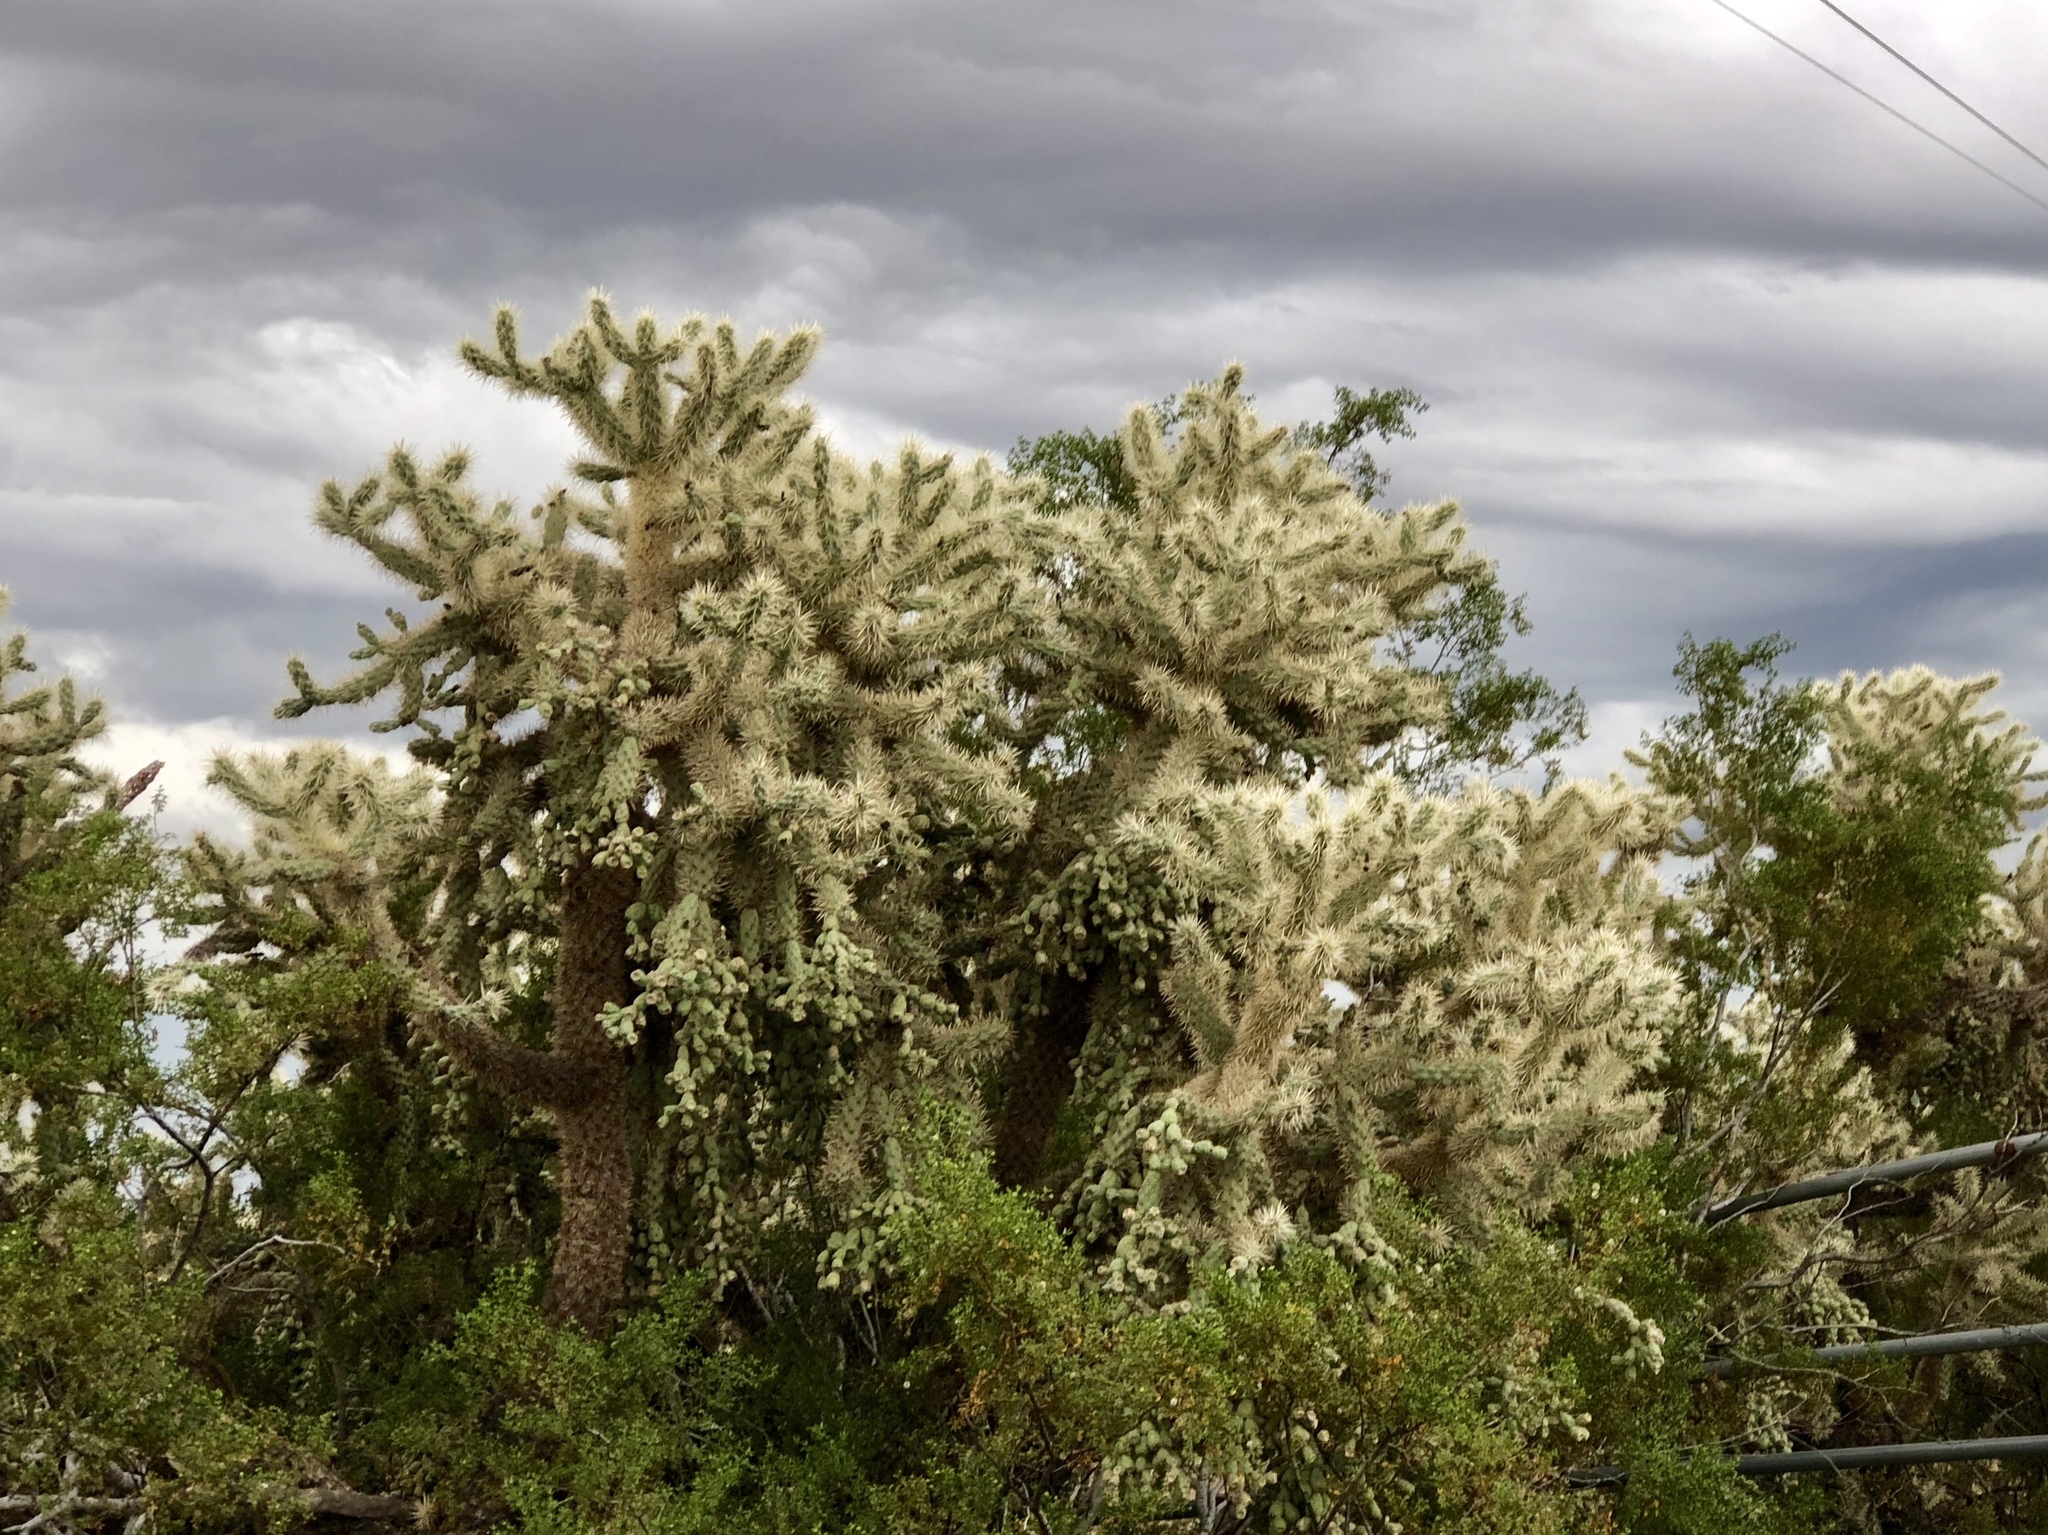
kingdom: Plantae
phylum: Tracheophyta
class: Magnoliopsida
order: Caryophyllales
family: Cactaceae
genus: Cylindropuntia
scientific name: Cylindropuntia fulgida
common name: Jumping cholla
